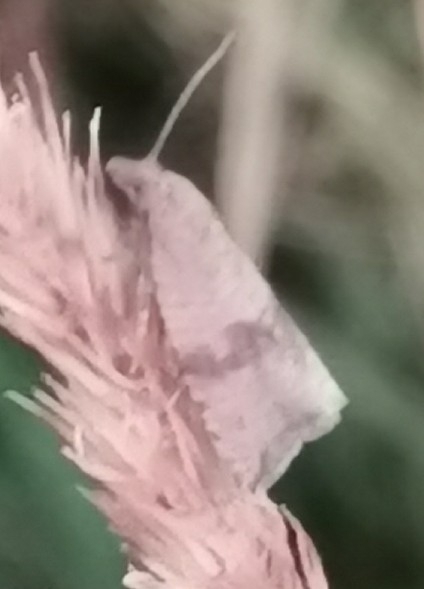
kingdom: Animalia
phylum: Arthropoda
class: Insecta
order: Lepidoptera
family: Tortricidae
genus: Celypha
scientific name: Celypha striana
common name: Barred marble
